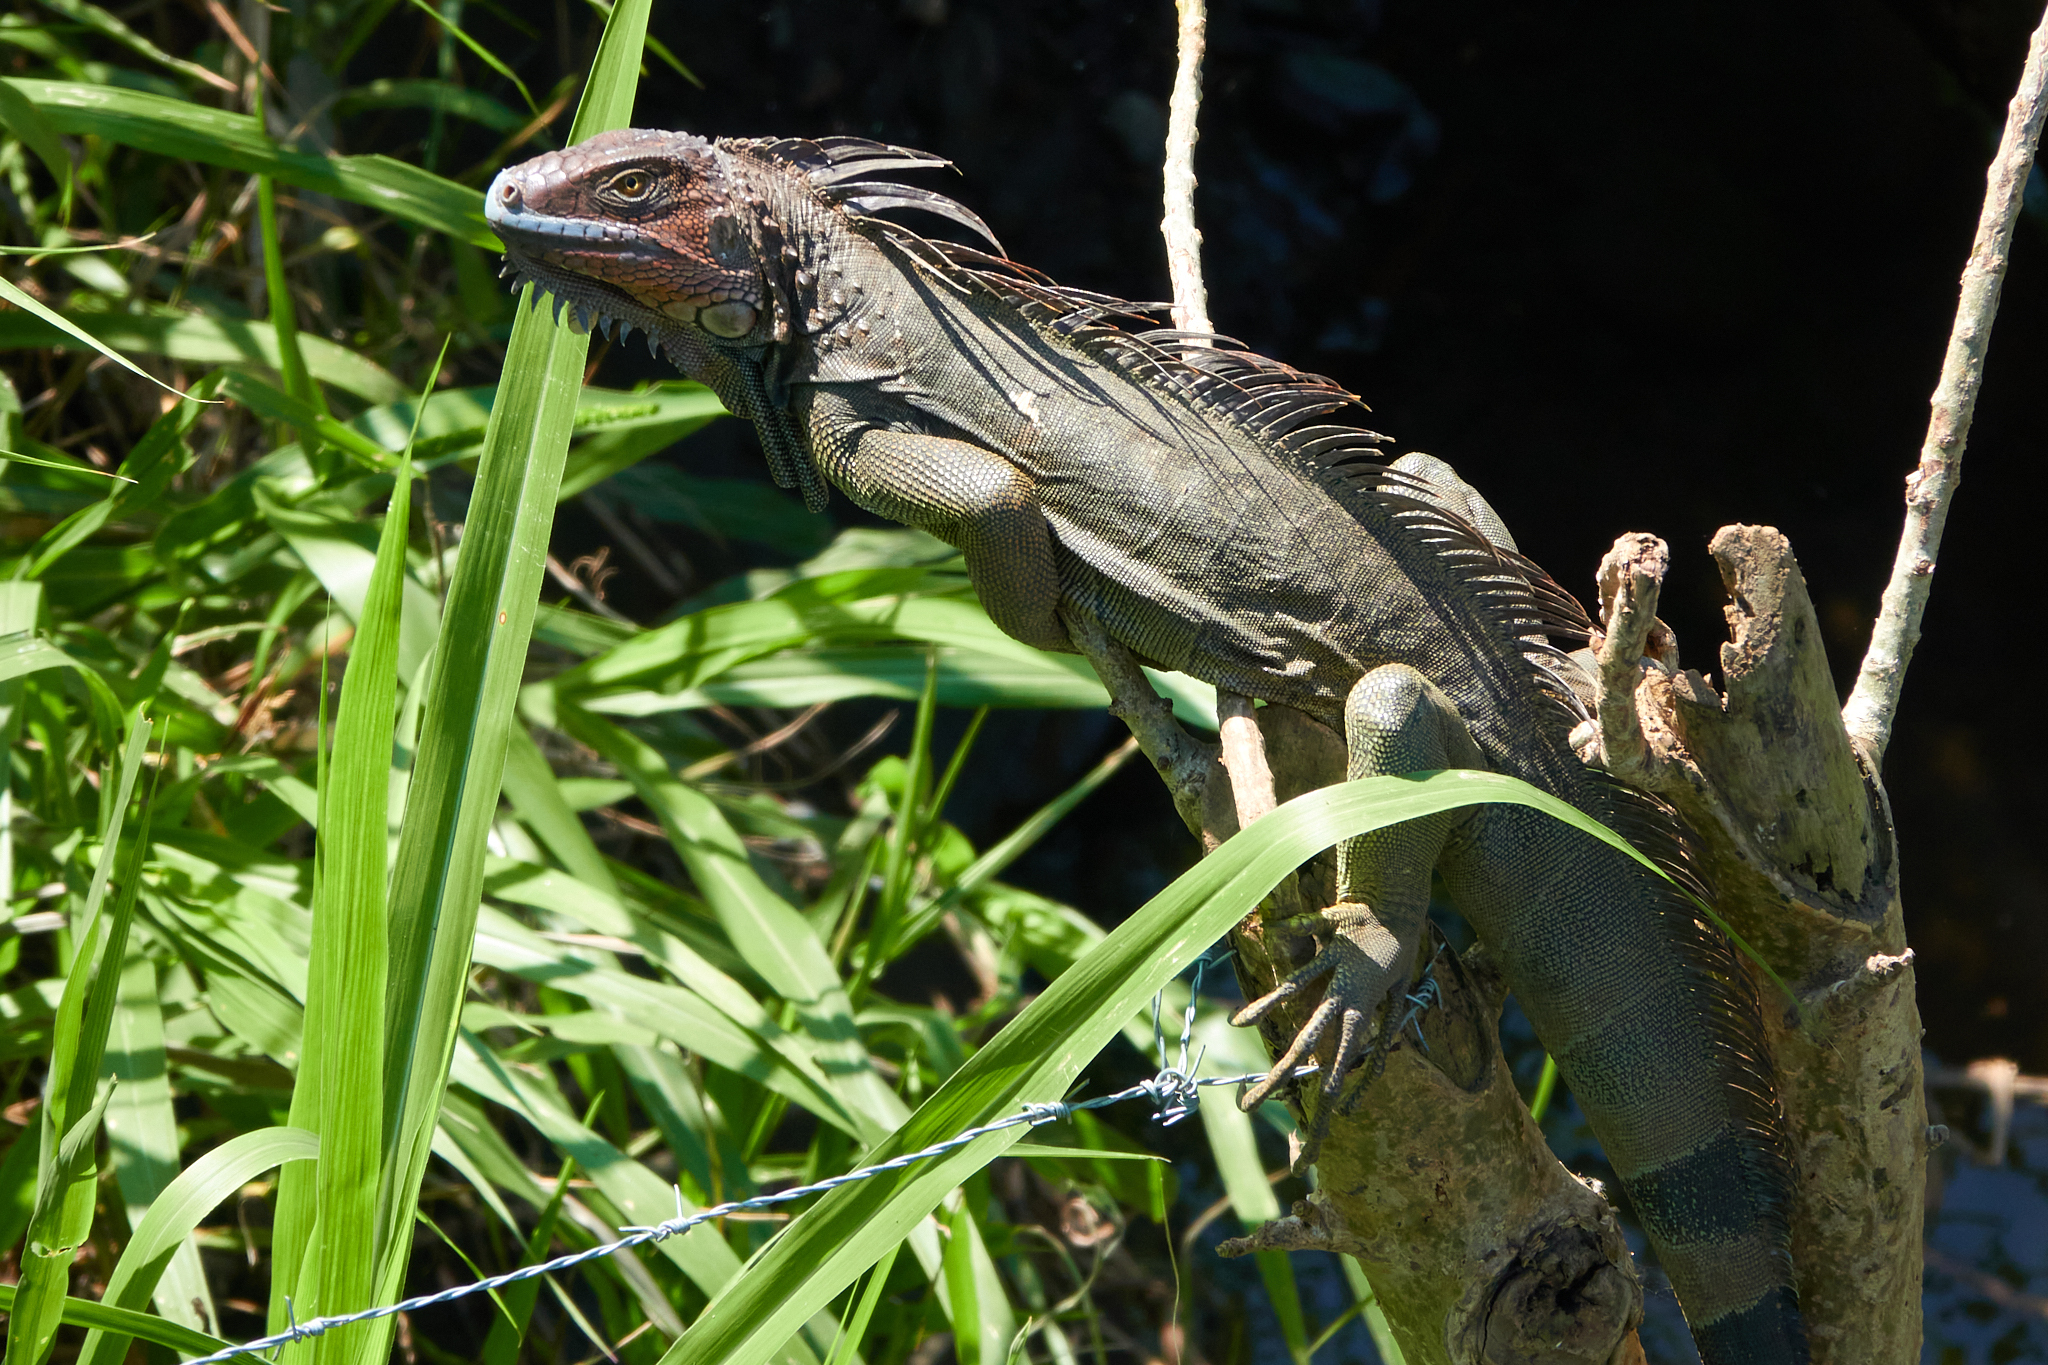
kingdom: Animalia
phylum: Chordata
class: Squamata
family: Iguanidae
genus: Iguana
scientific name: Iguana iguana
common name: Green iguana
